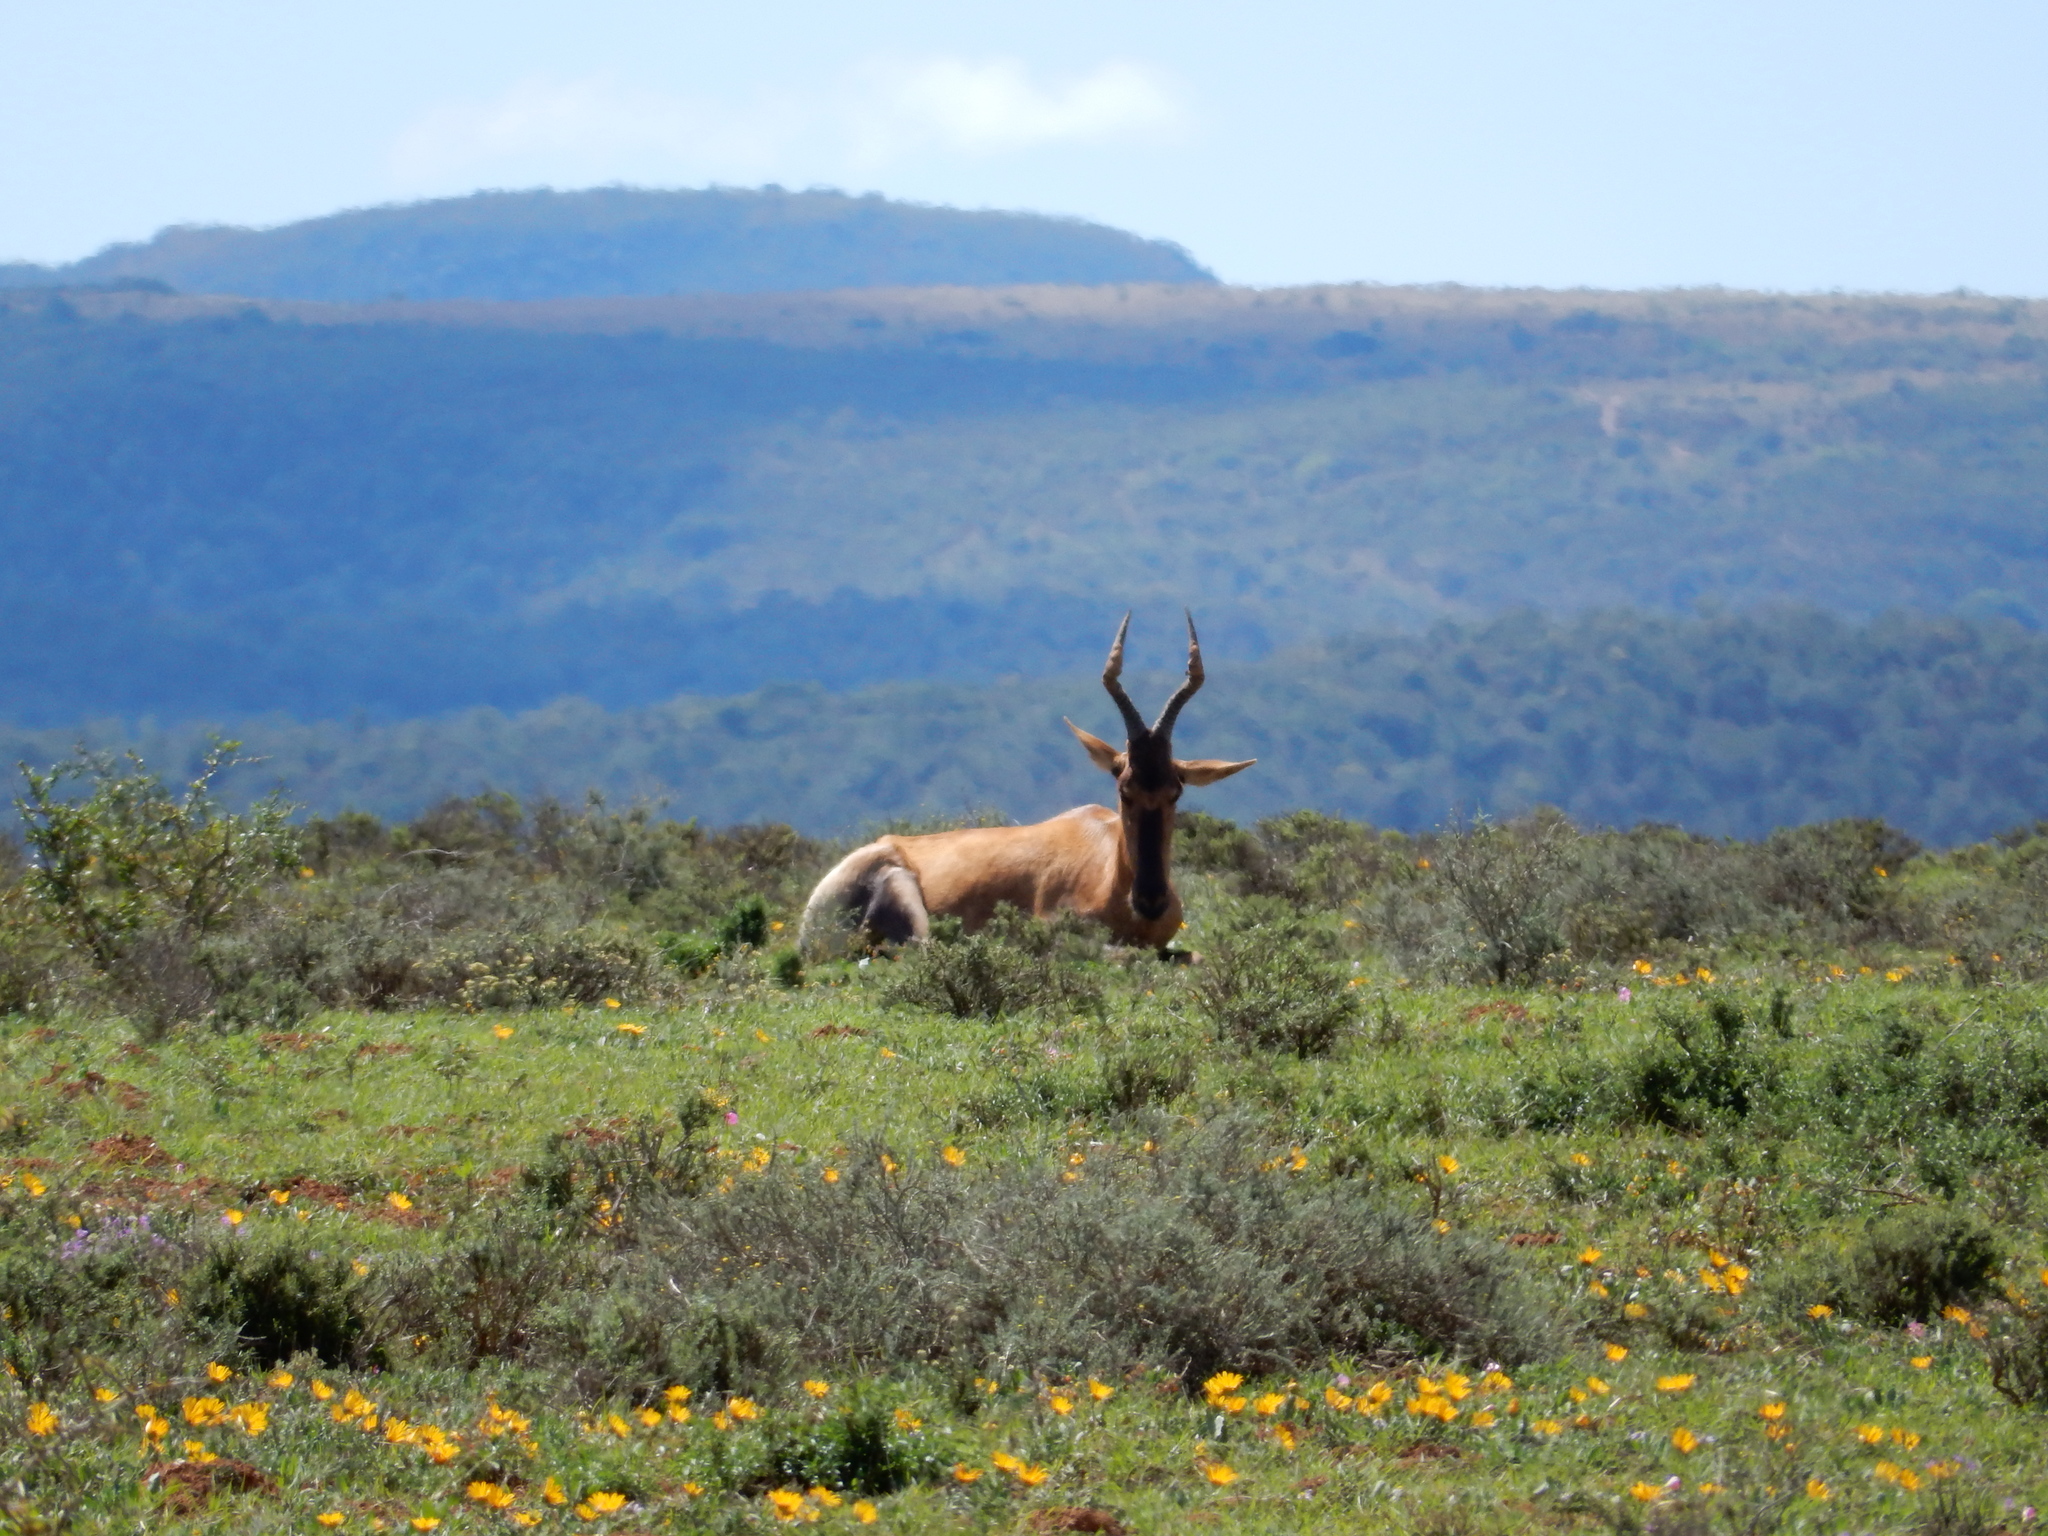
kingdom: Animalia
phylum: Chordata
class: Mammalia
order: Artiodactyla
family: Bovidae
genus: Alcelaphus
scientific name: Alcelaphus caama
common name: Red hartebeest
